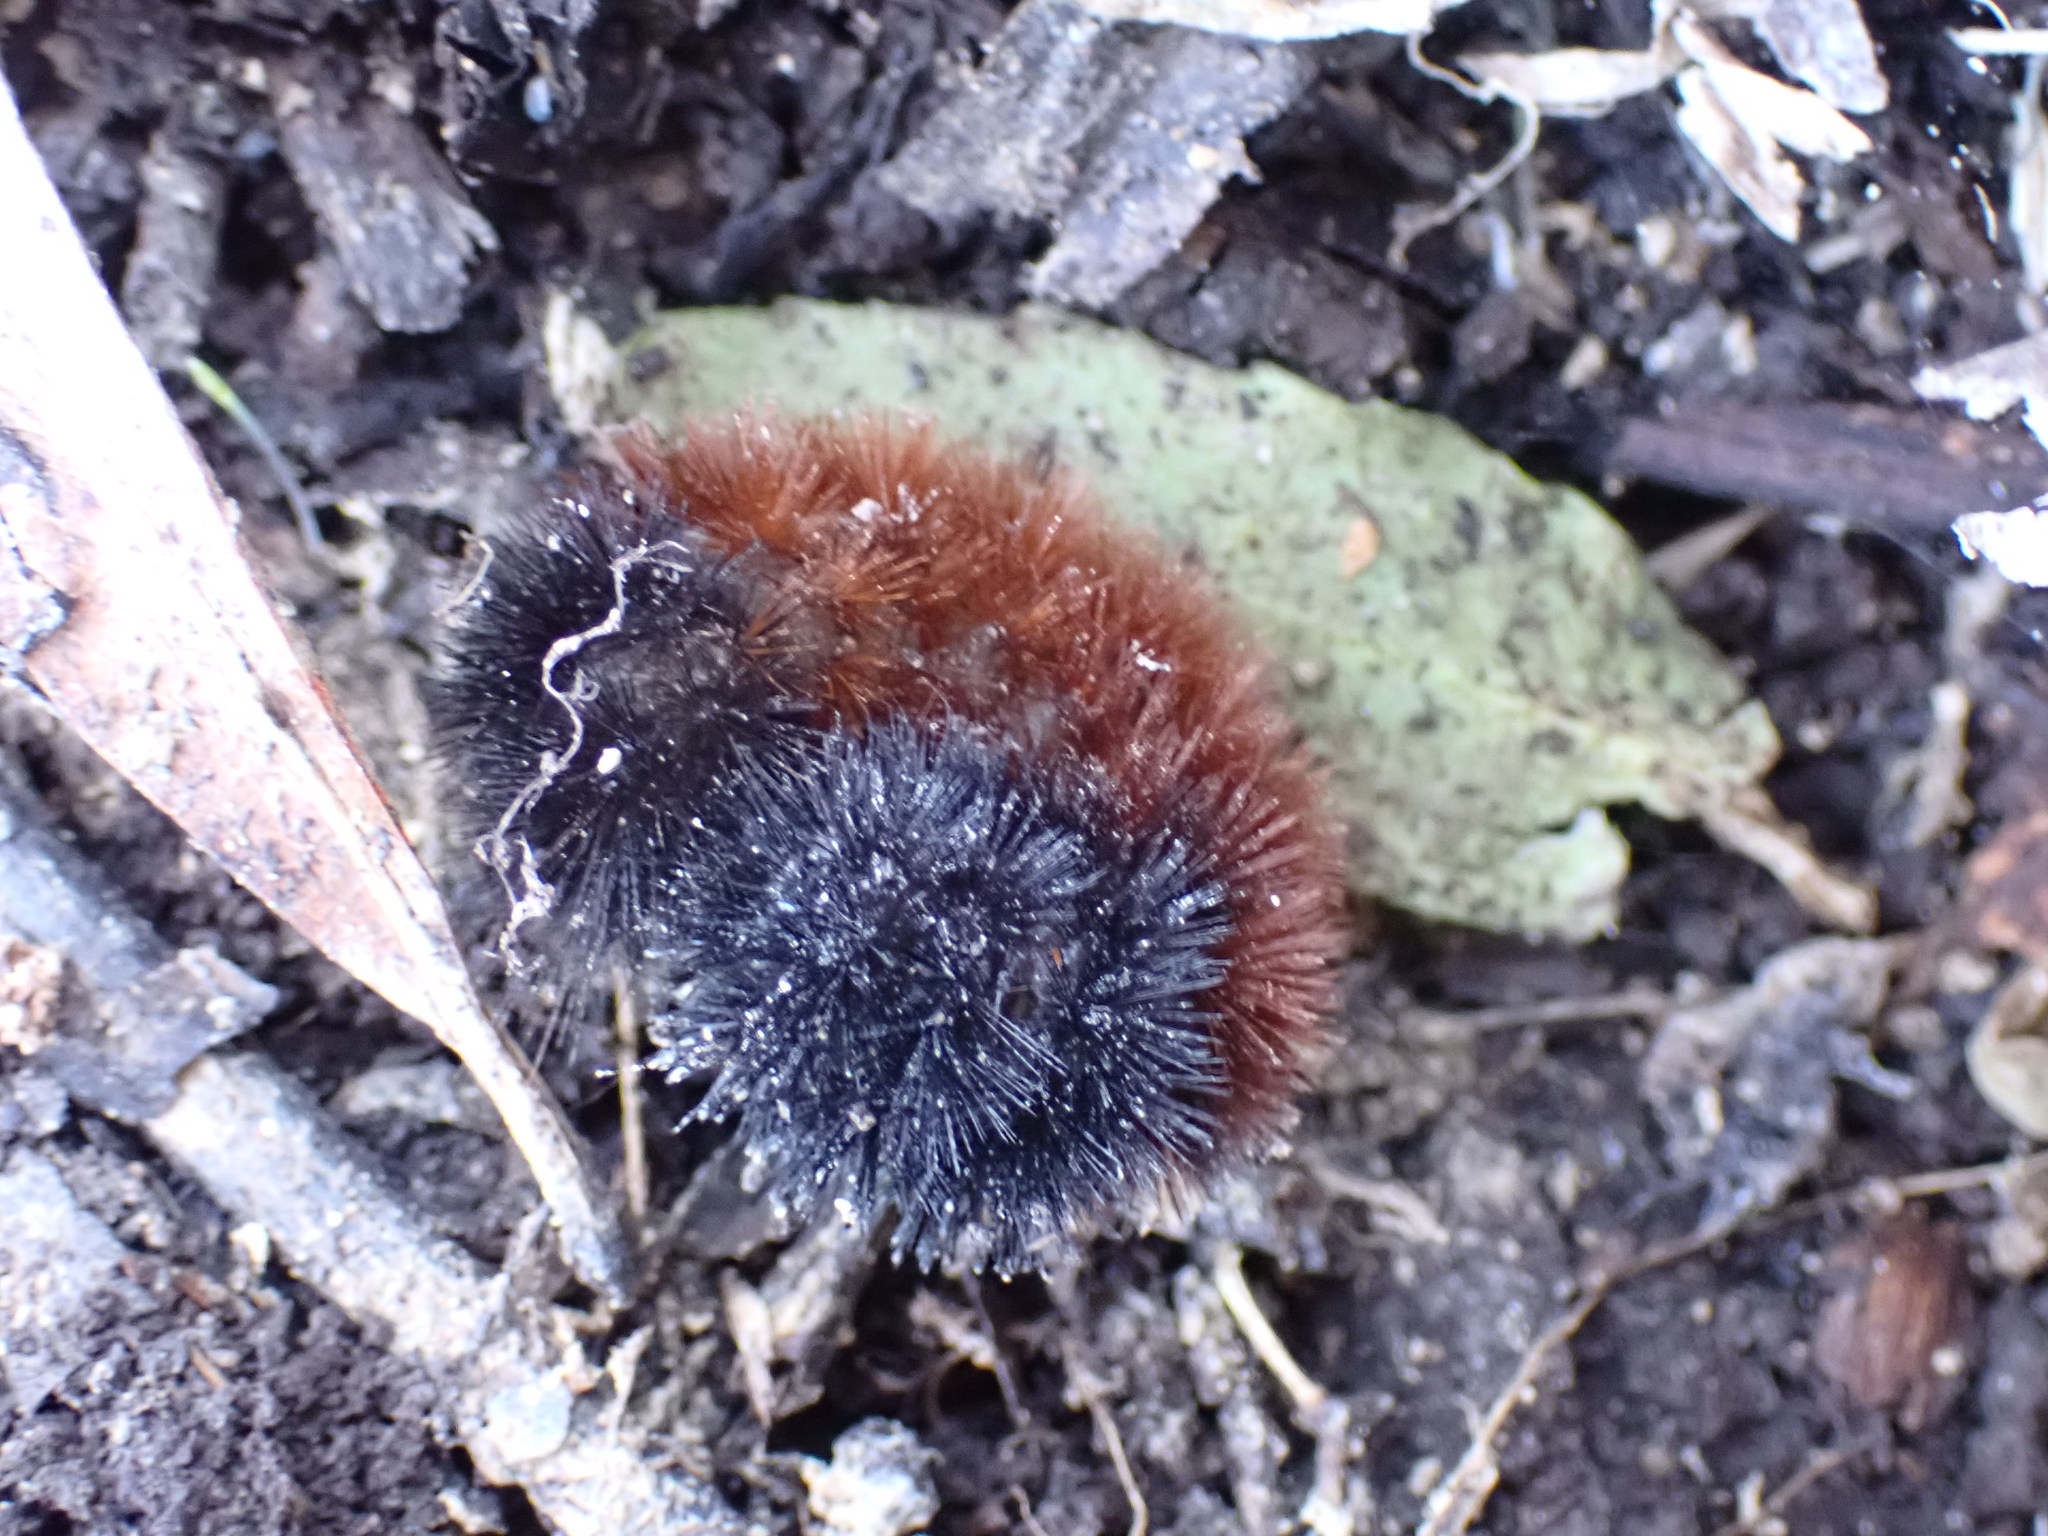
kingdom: Animalia
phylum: Arthropoda
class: Insecta
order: Lepidoptera
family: Erebidae
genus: Pyrrharctia
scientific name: Pyrrharctia isabella
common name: Isabella tiger moth
